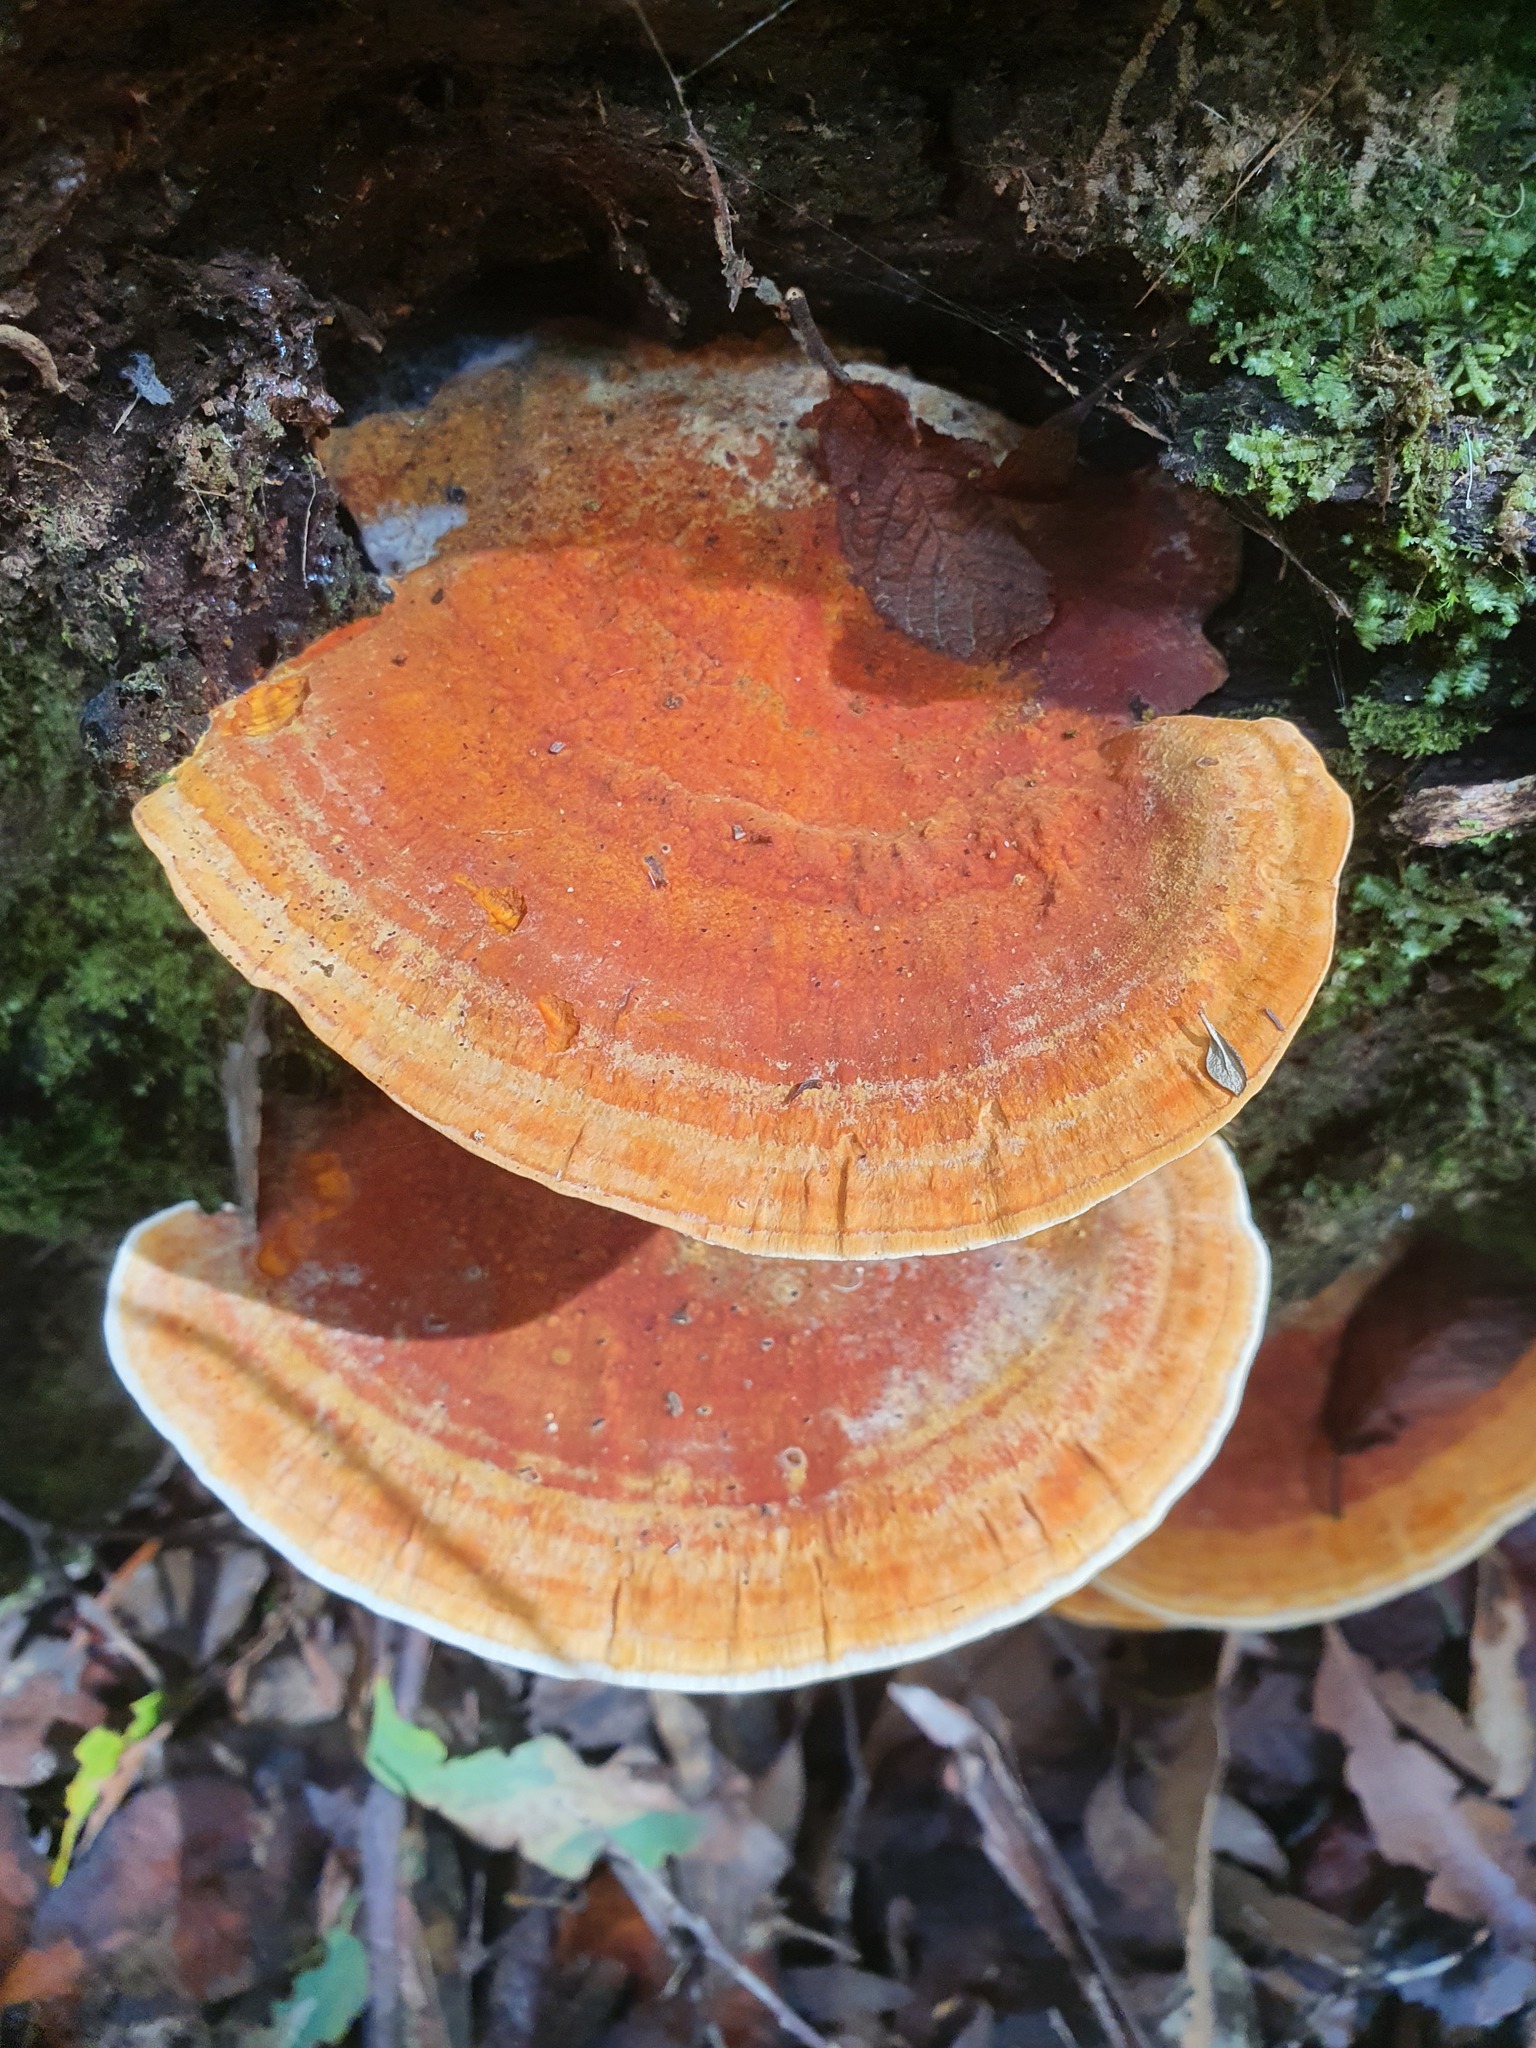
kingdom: Fungi
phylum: Basidiomycota
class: Agaricomycetes
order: Polyporales
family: Polyporaceae
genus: Trametes
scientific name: Trametes coccinea
